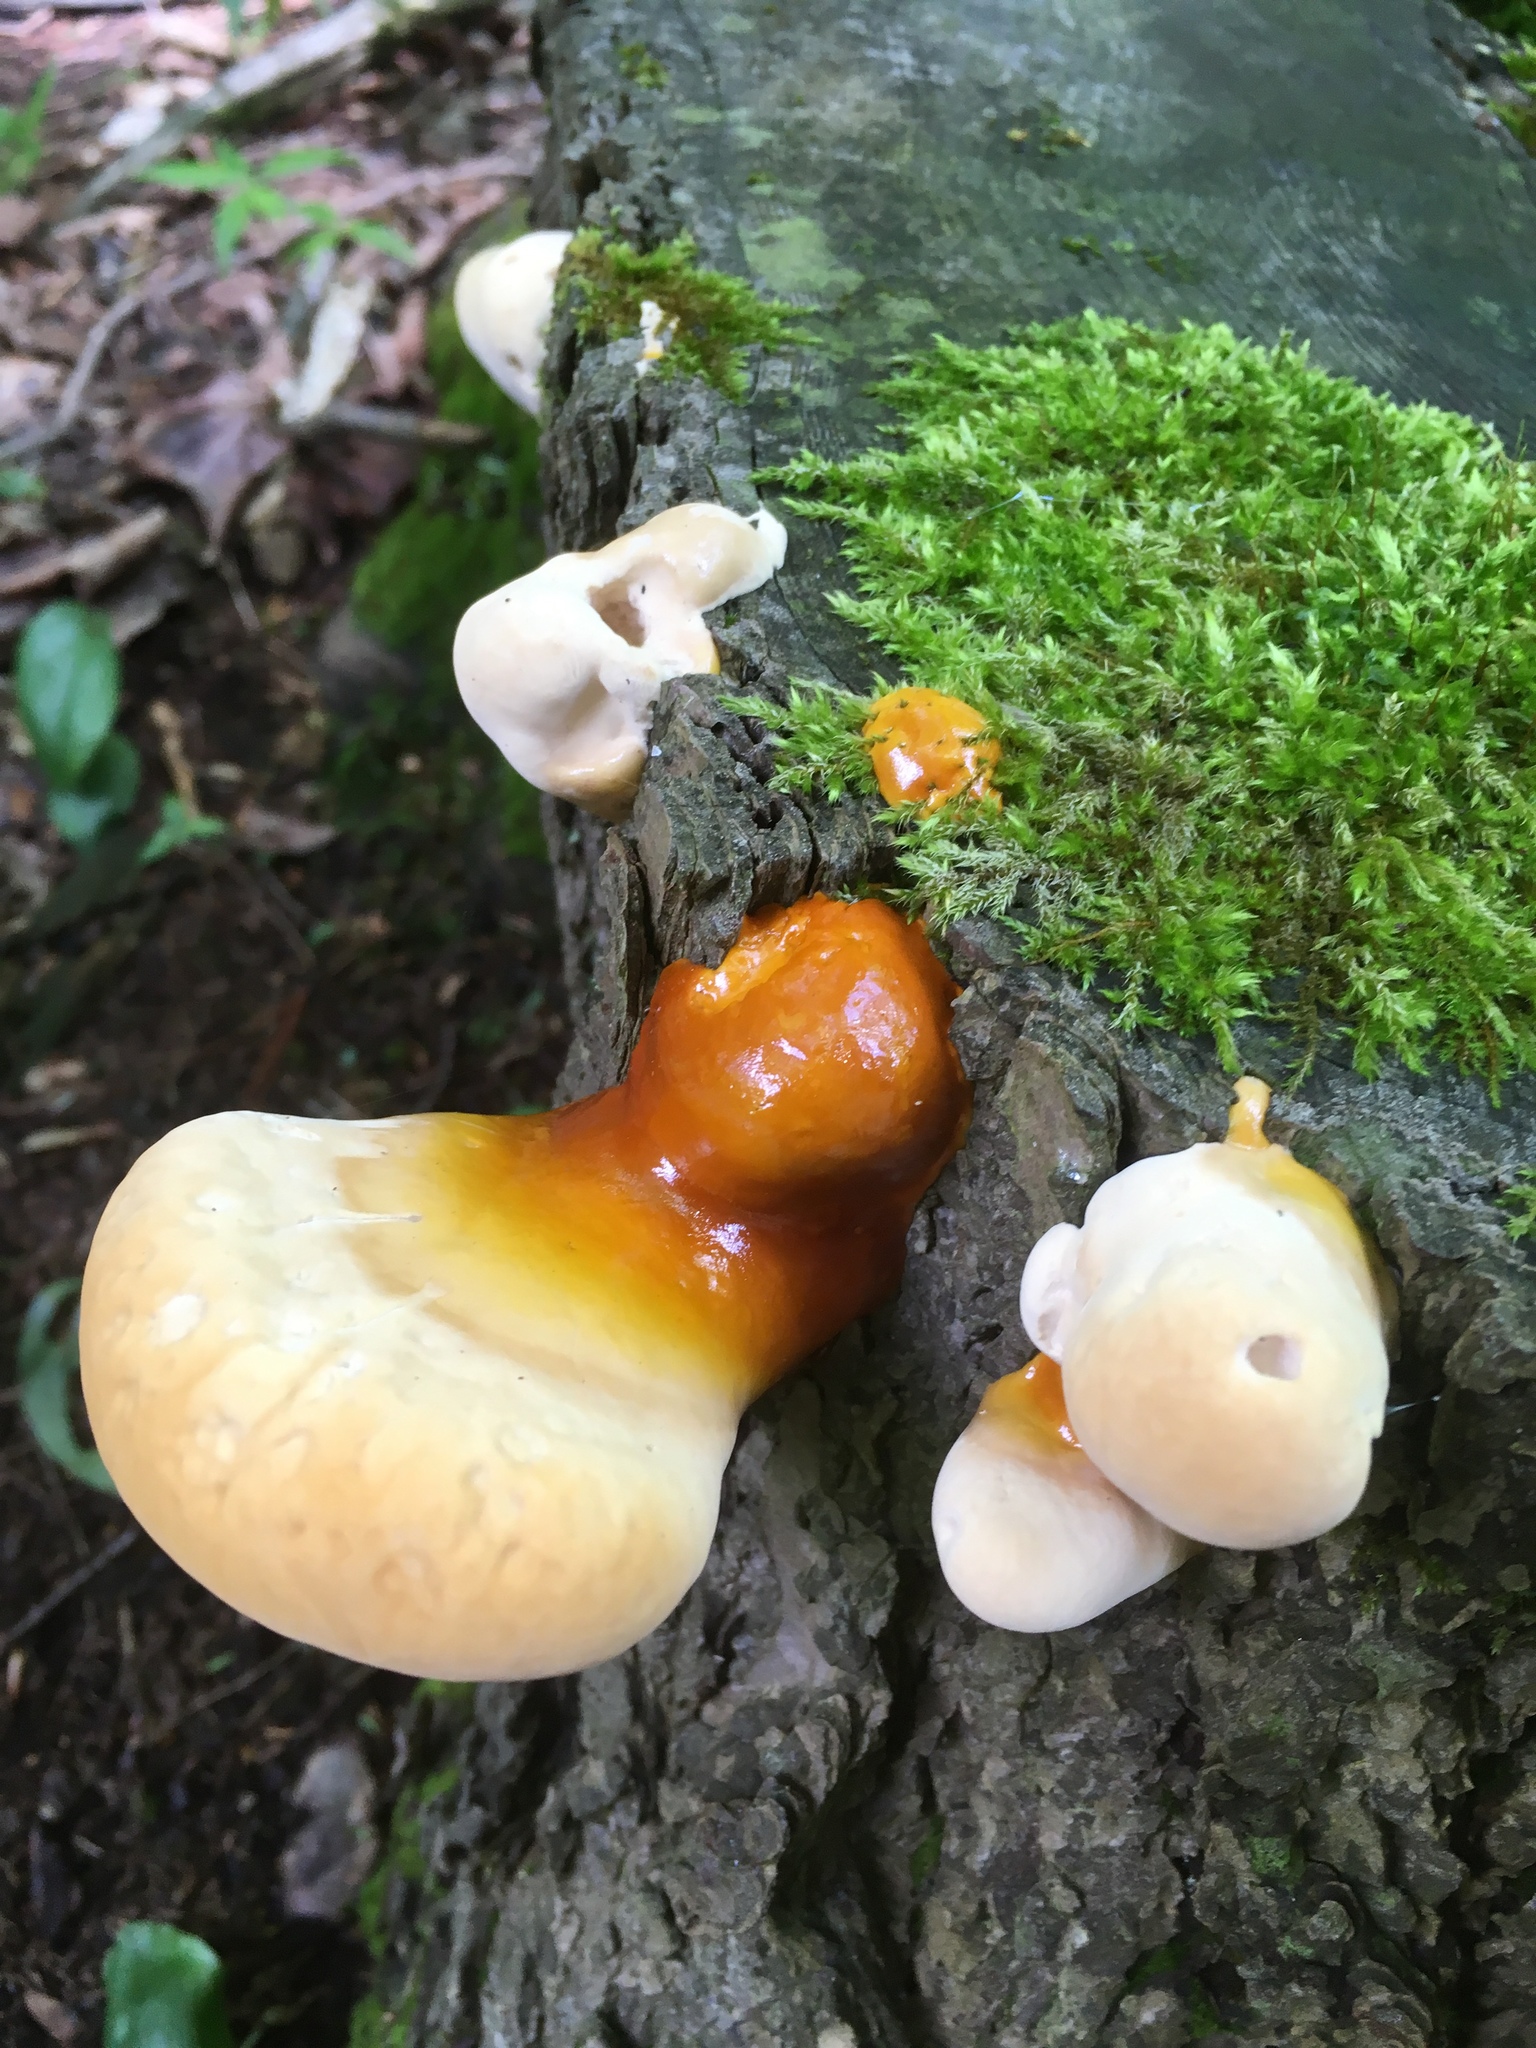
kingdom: Fungi
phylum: Basidiomycota
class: Agaricomycetes
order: Polyporales
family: Polyporaceae
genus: Ganoderma
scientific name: Ganoderma tsugae
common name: Hemlock varnish shelf
